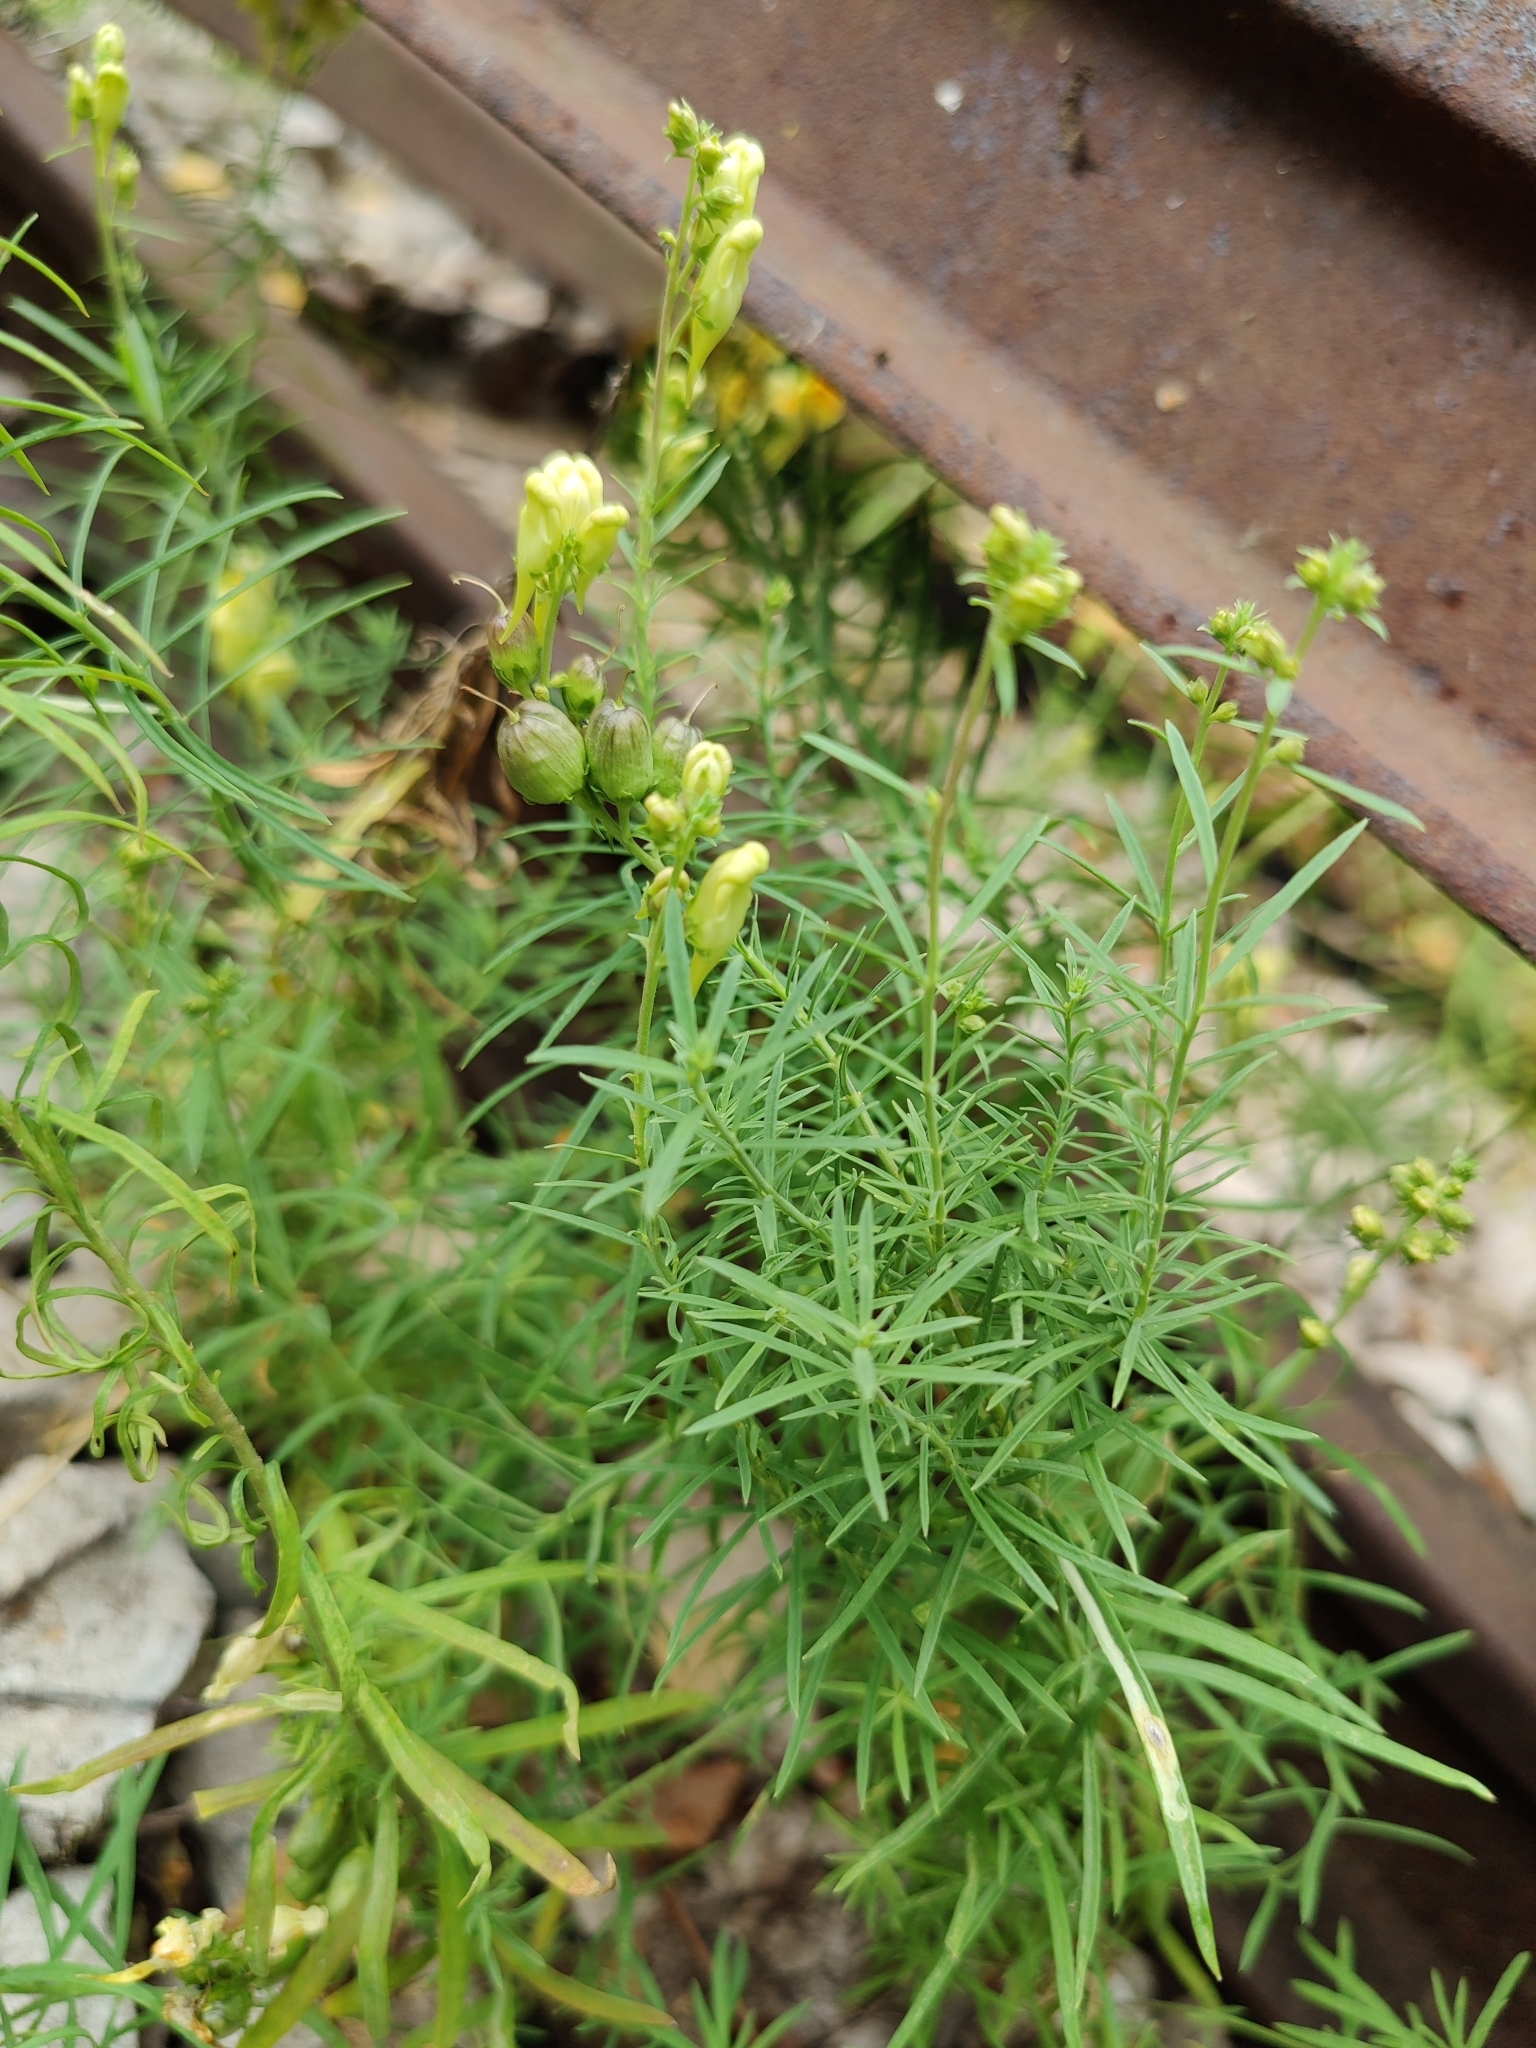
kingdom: Plantae
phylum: Tracheophyta
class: Magnoliopsida
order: Lamiales
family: Plantaginaceae
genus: Linaria
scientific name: Linaria vulgaris
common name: Butter and eggs
